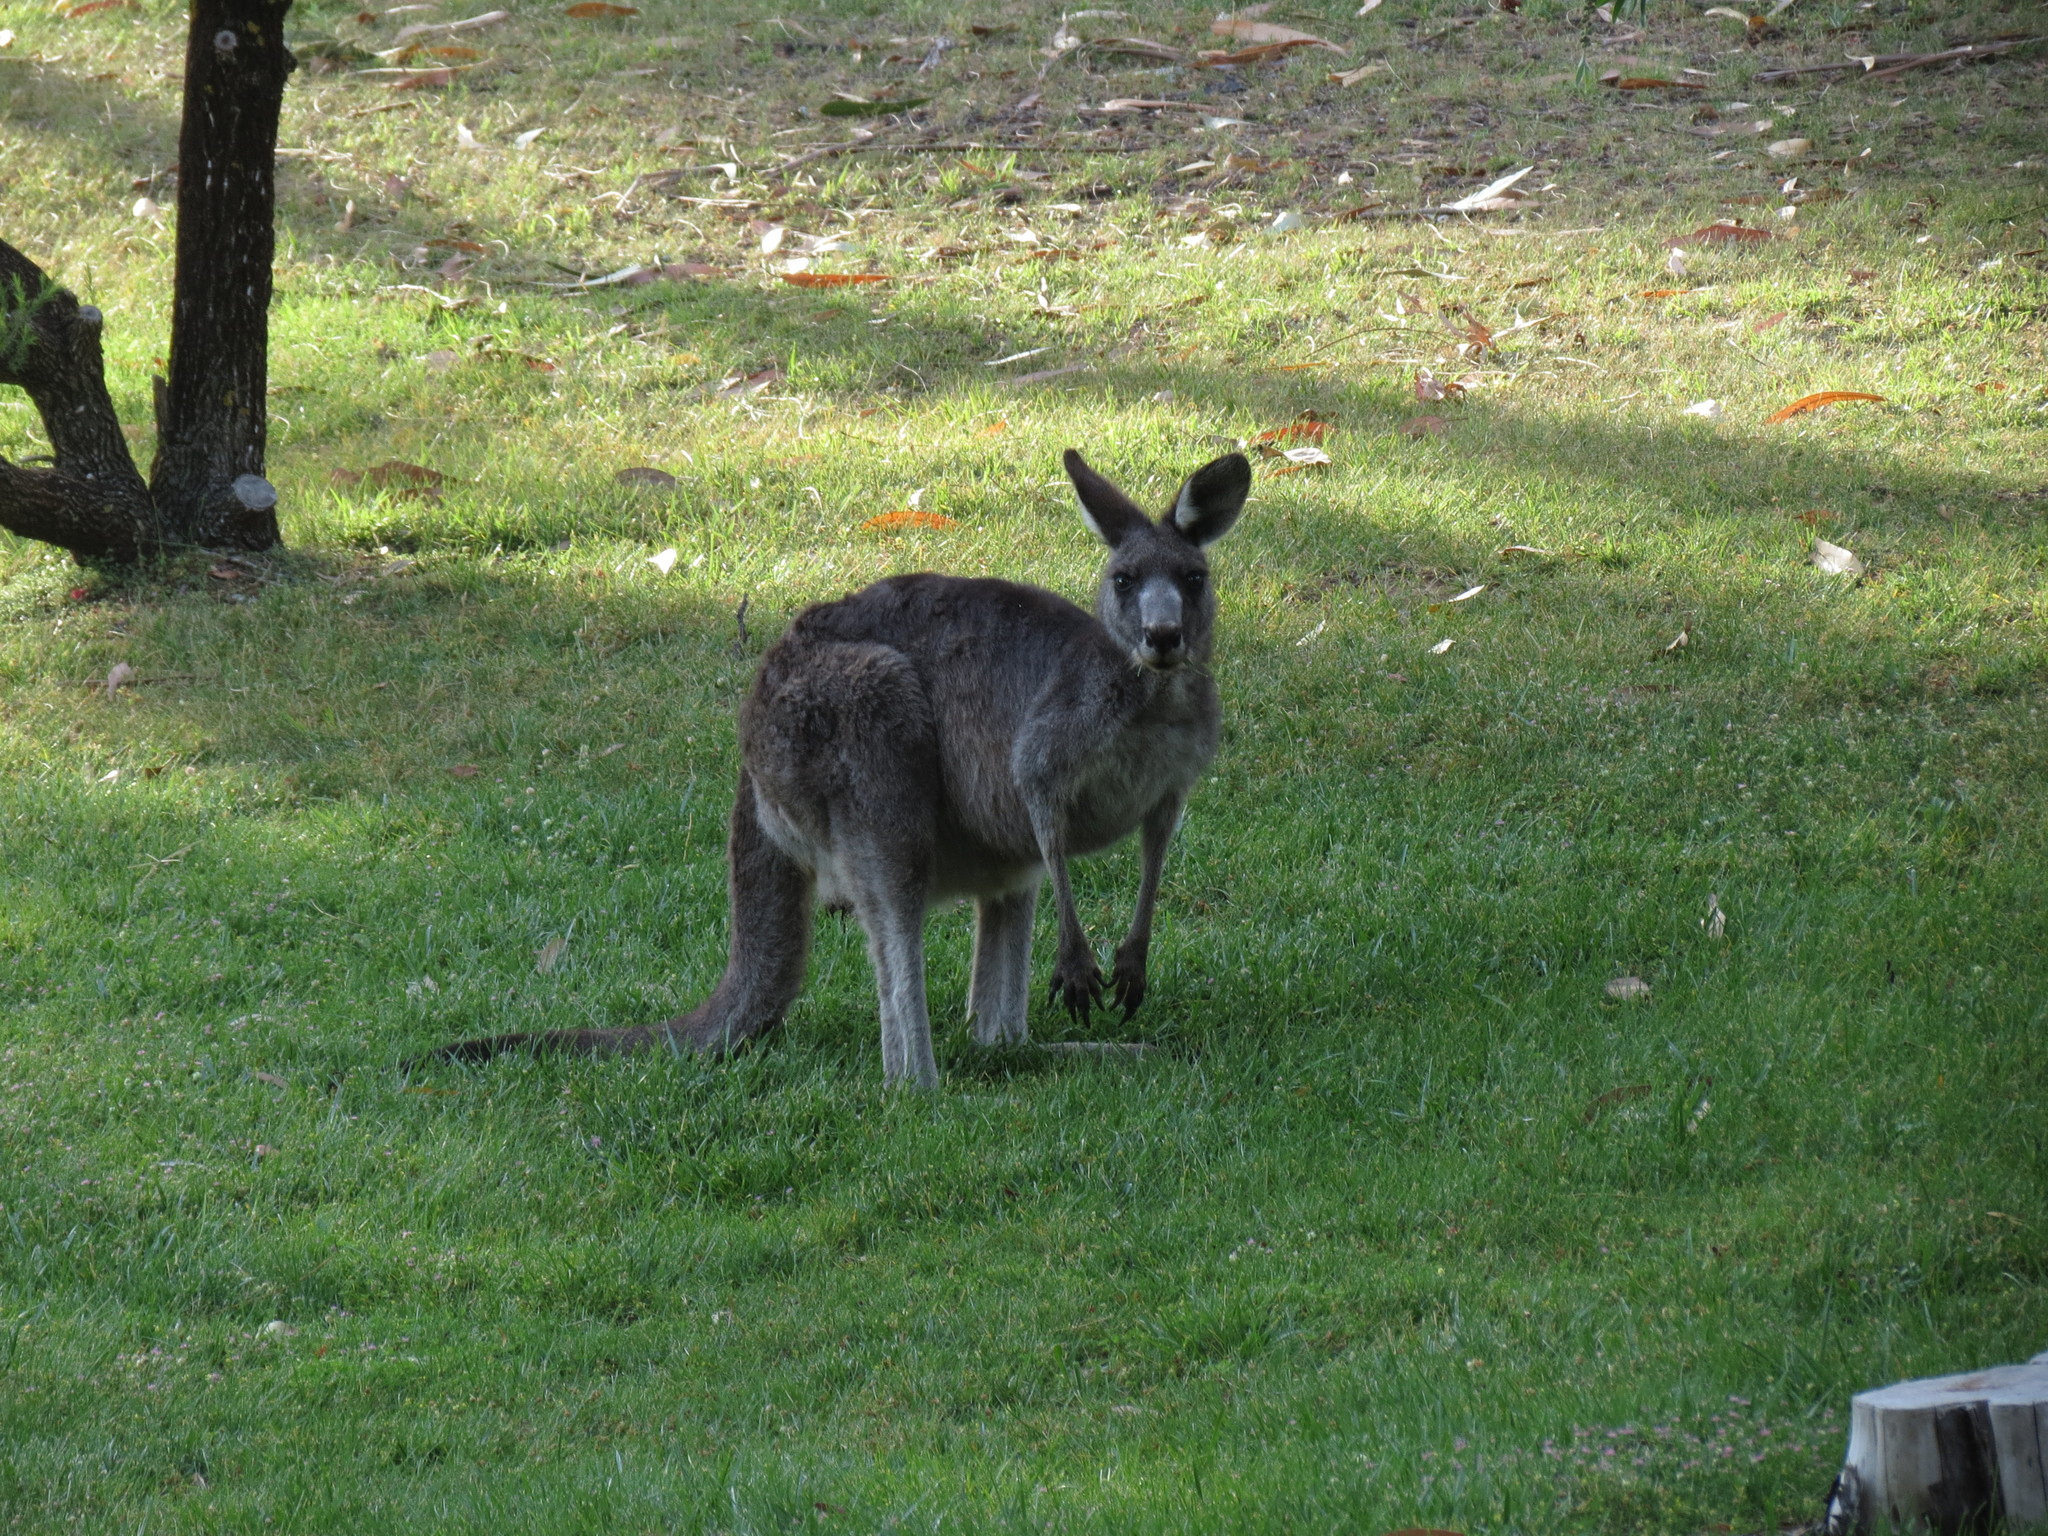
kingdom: Animalia
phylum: Chordata
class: Mammalia
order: Diprotodontia
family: Macropodidae
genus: Macropus
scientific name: Macropus giganteus
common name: Eastern grey kangaroo
